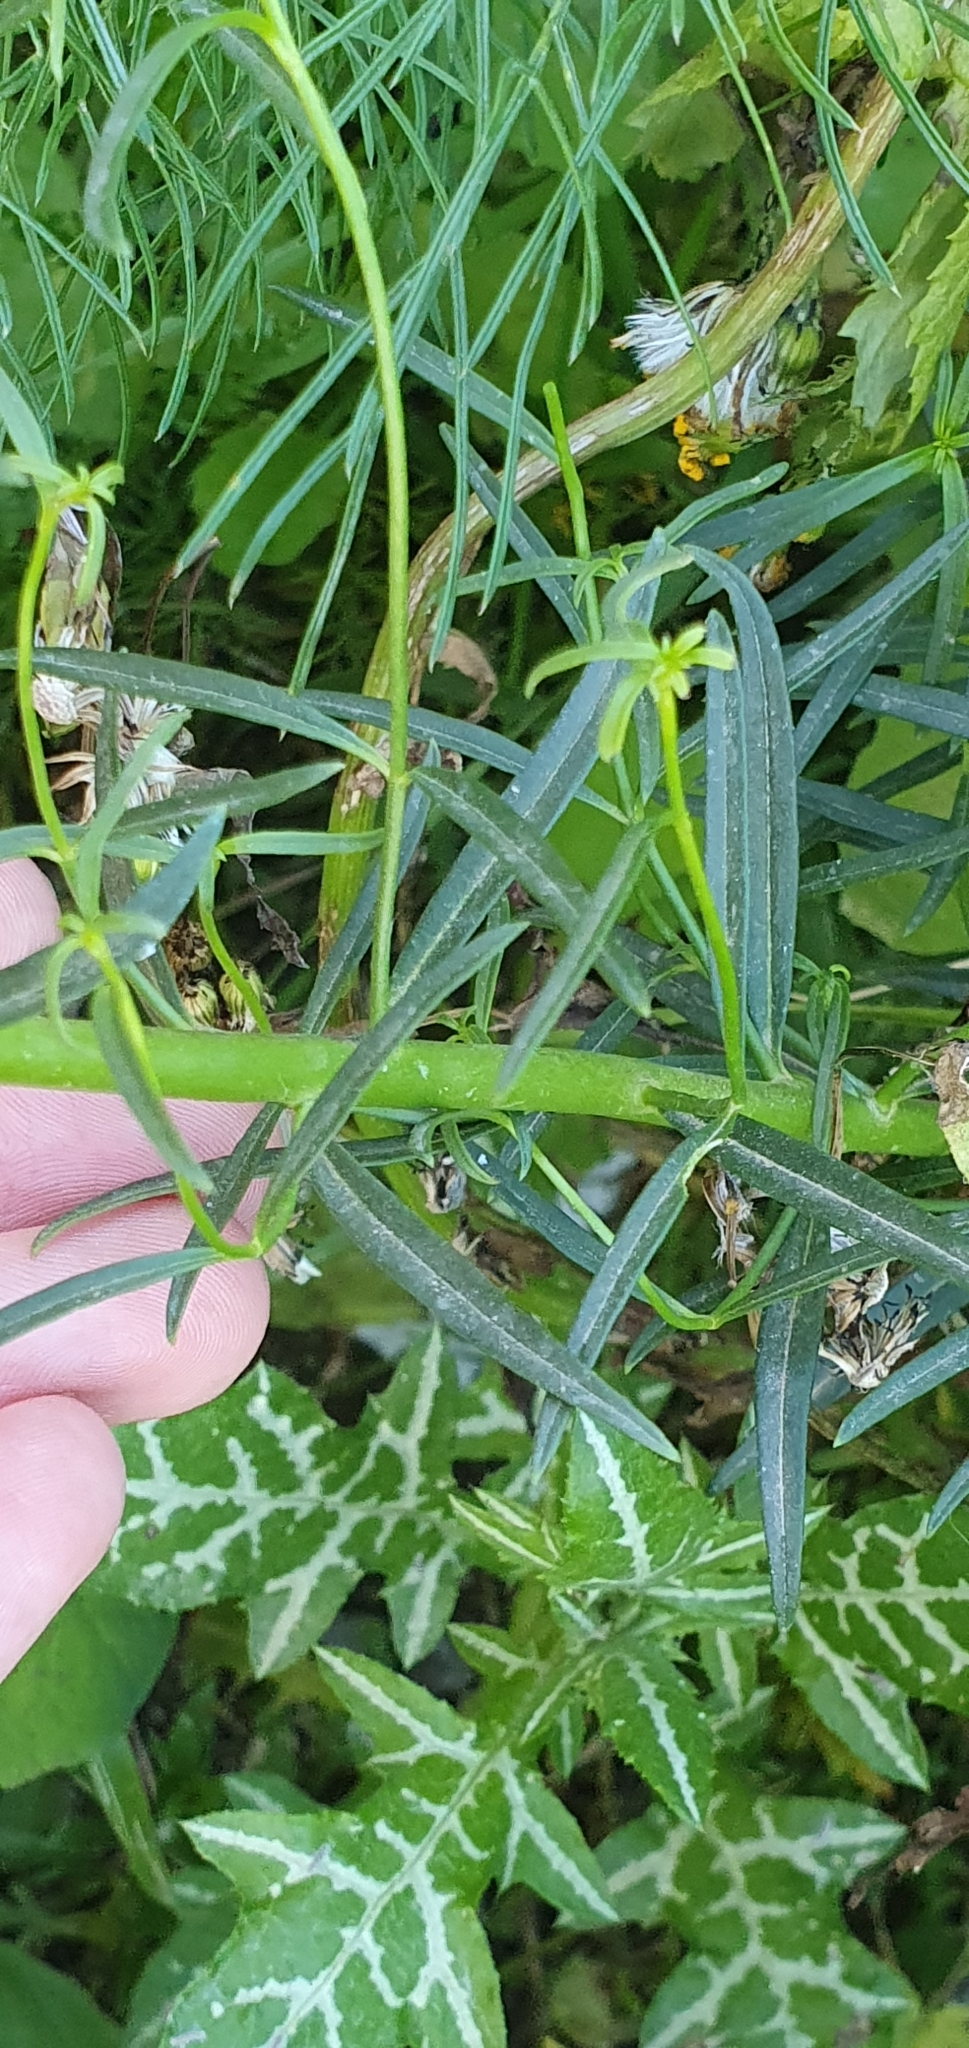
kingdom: Plantae
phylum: Tracheophyta
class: Magnoliopsida
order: Lamiales
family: Plantaginaceae
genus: Antirrhinum
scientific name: Antirrhinum tortuosum
